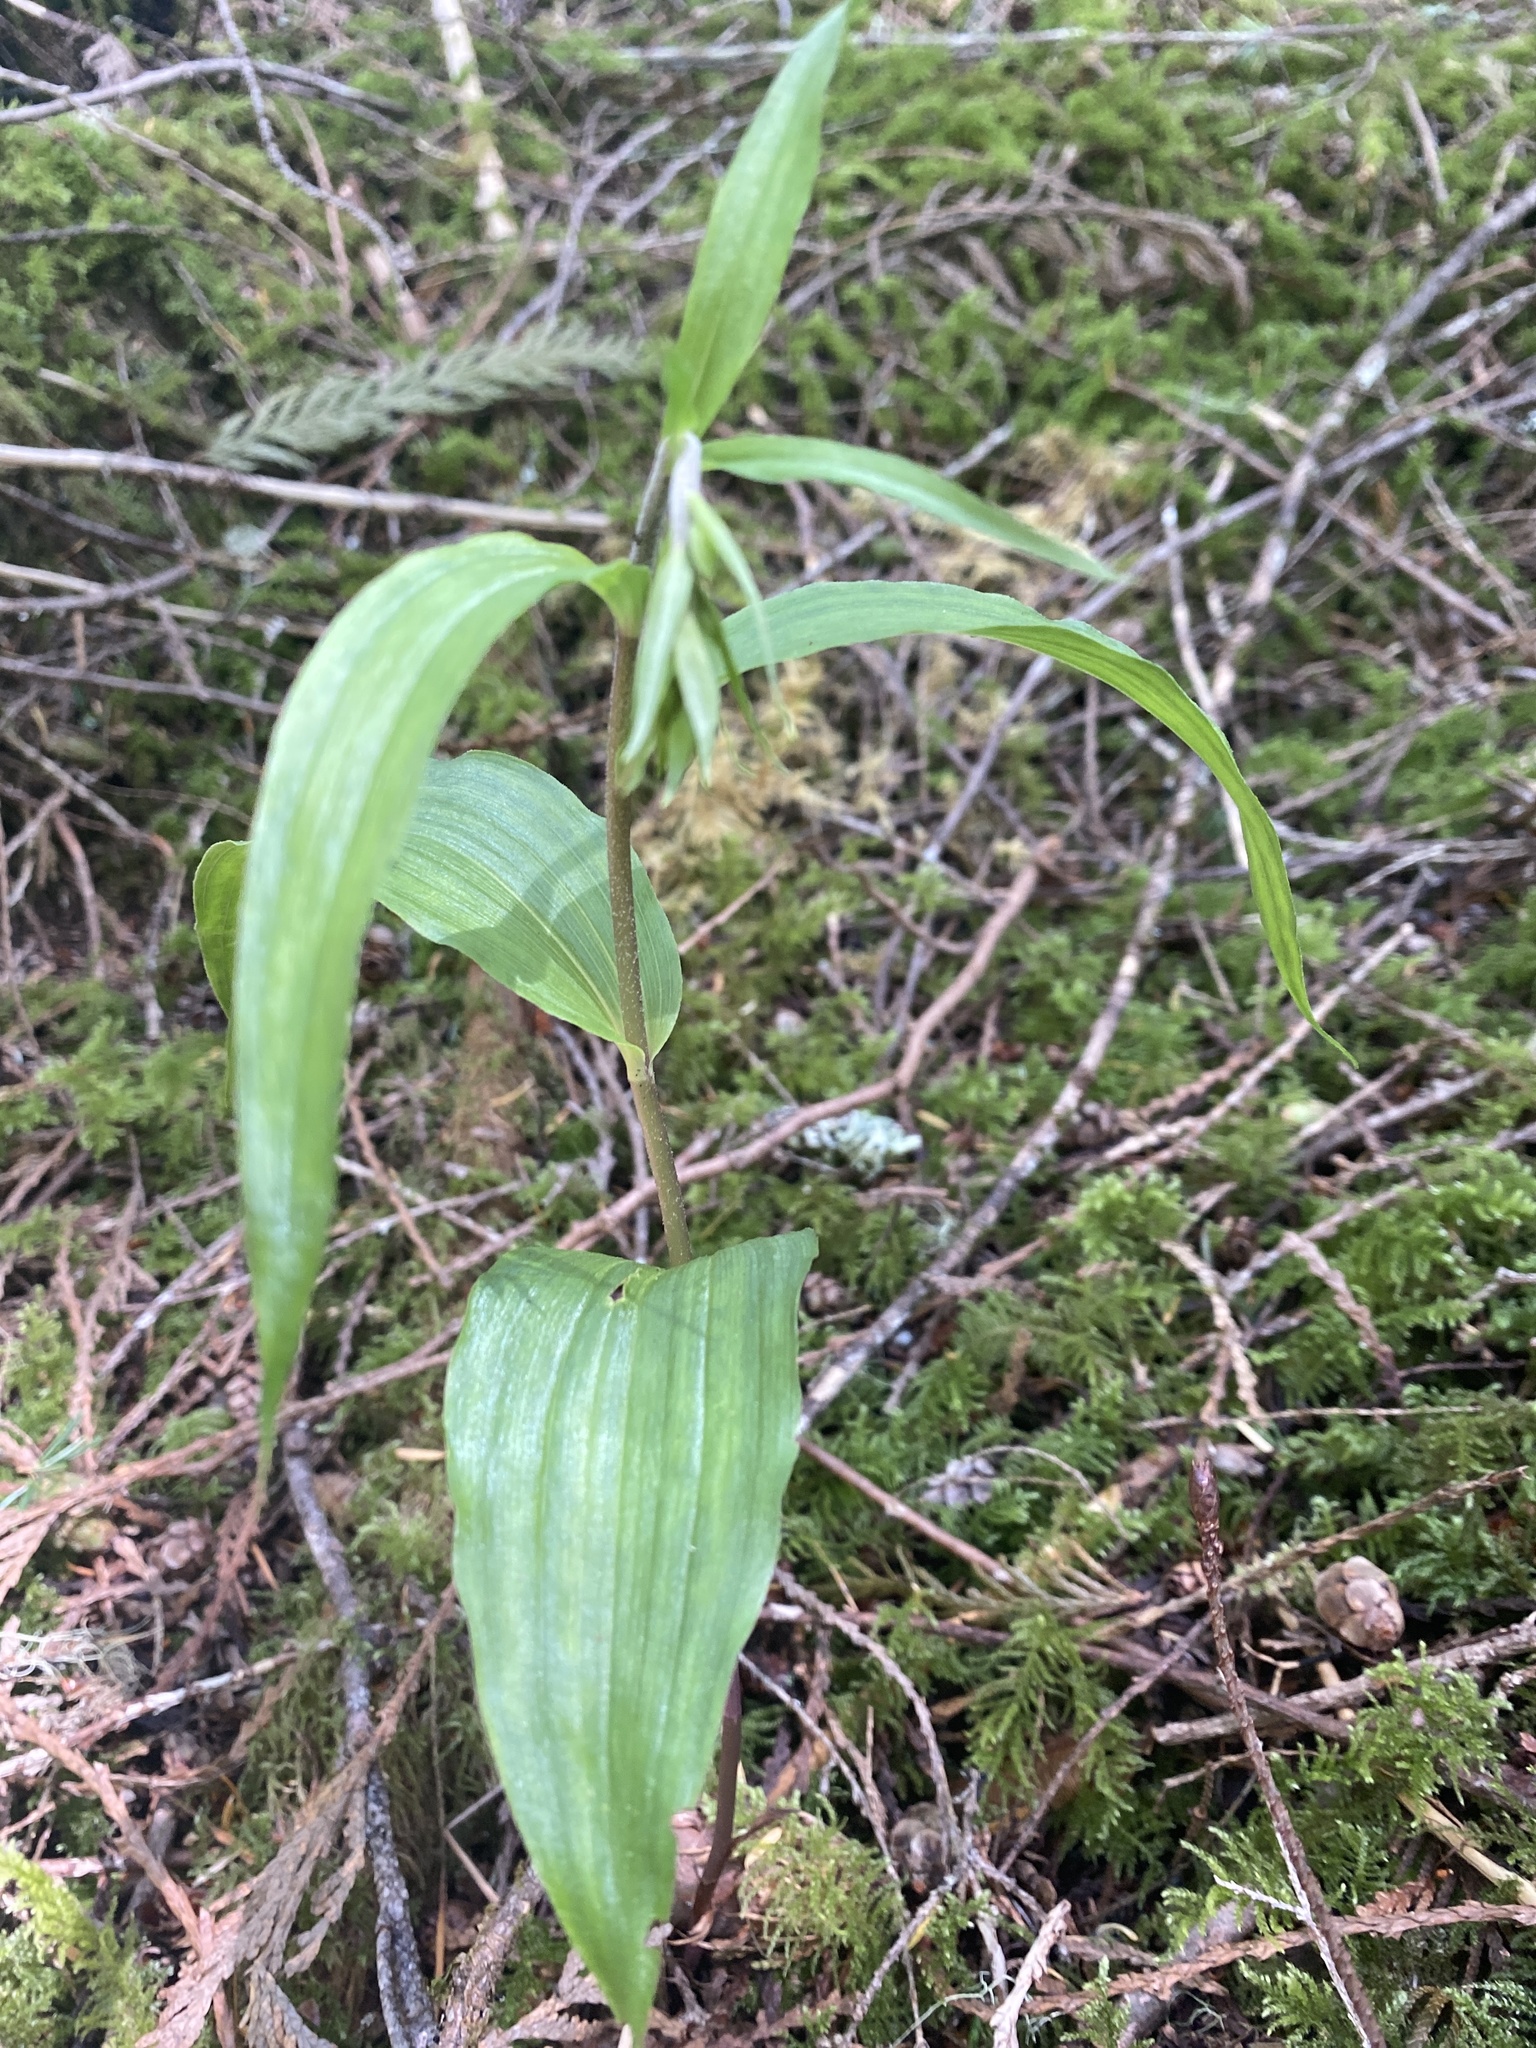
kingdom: Plantae
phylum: Tracheophyta
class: Liliopsida
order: Asparagales
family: Orchidaceae
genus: Epipactis
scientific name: Epipactis helleborine
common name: Broad-leaved helleborine
